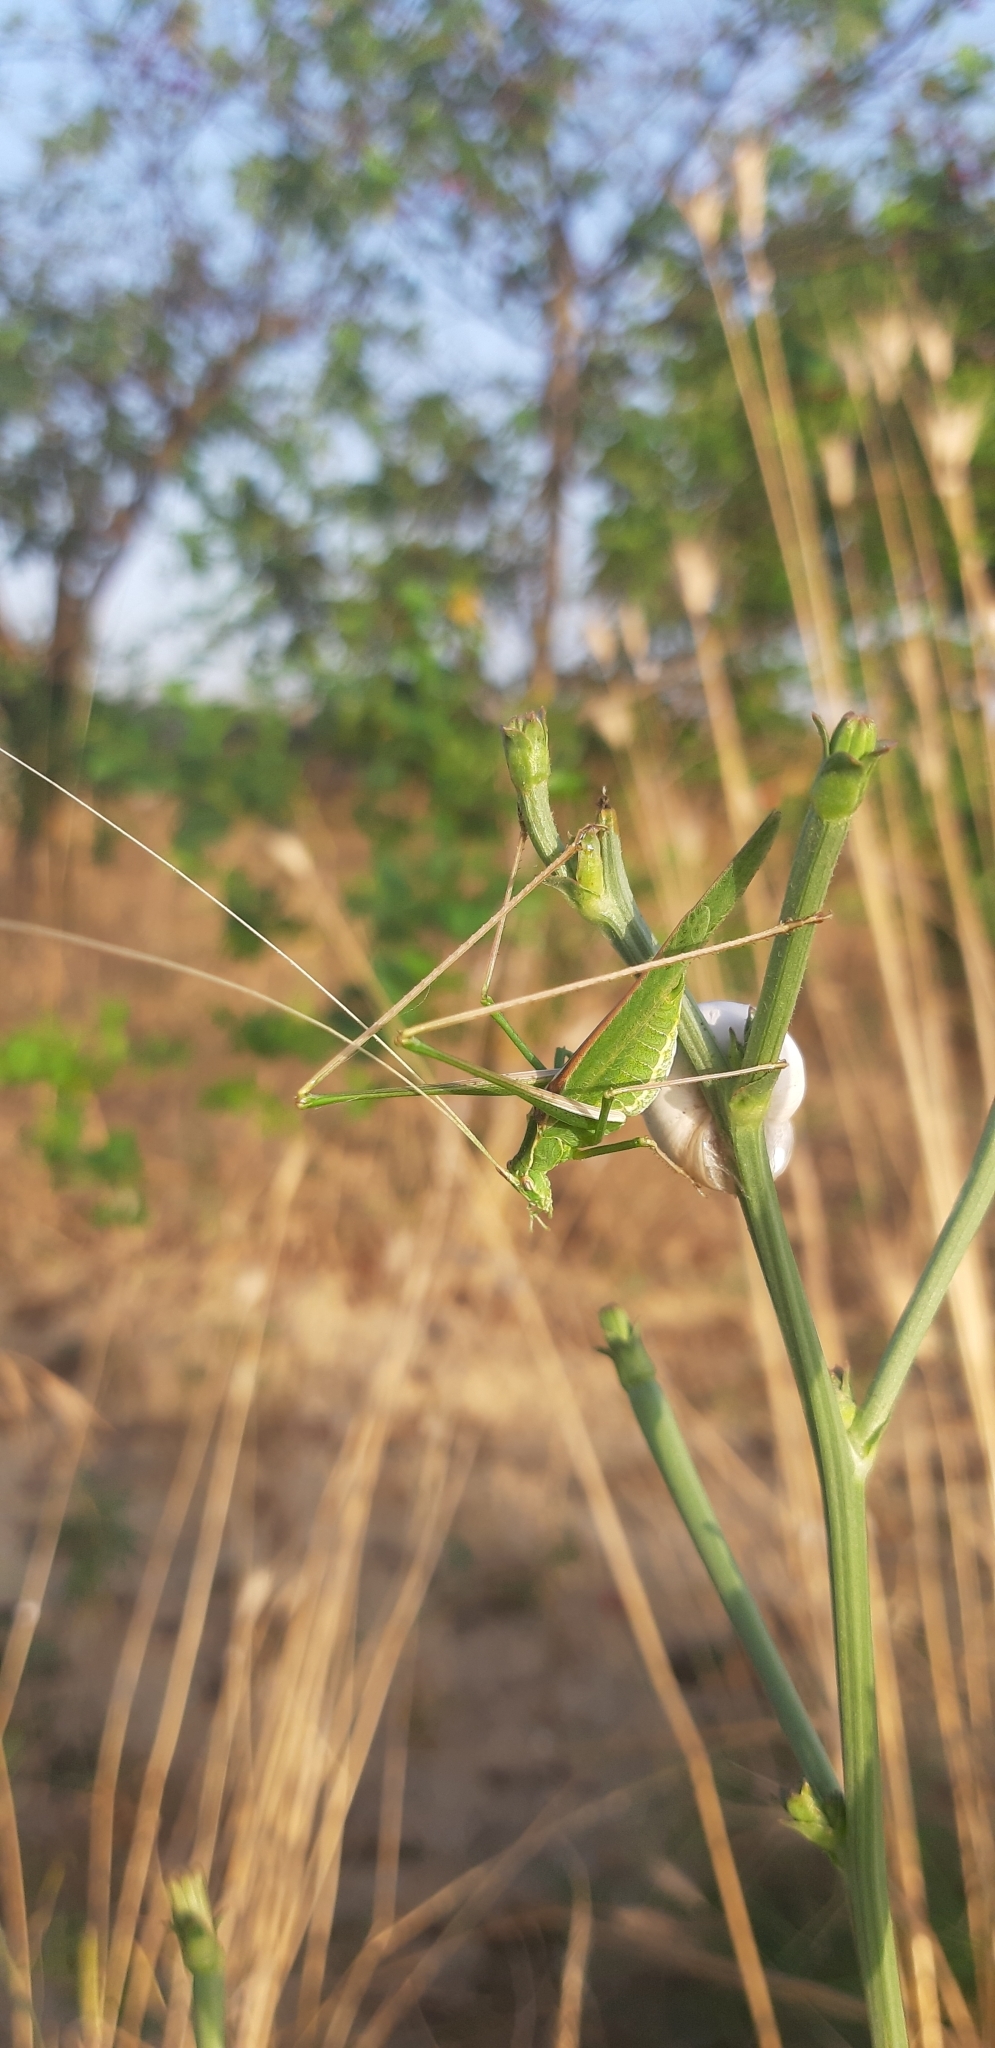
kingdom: Animalia
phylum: Arthropoda
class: Insecta
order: Orthoptera
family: Tettigoniidae
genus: Tylopsis
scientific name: Tylopsis lilifolia
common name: Lily bush-cricket
